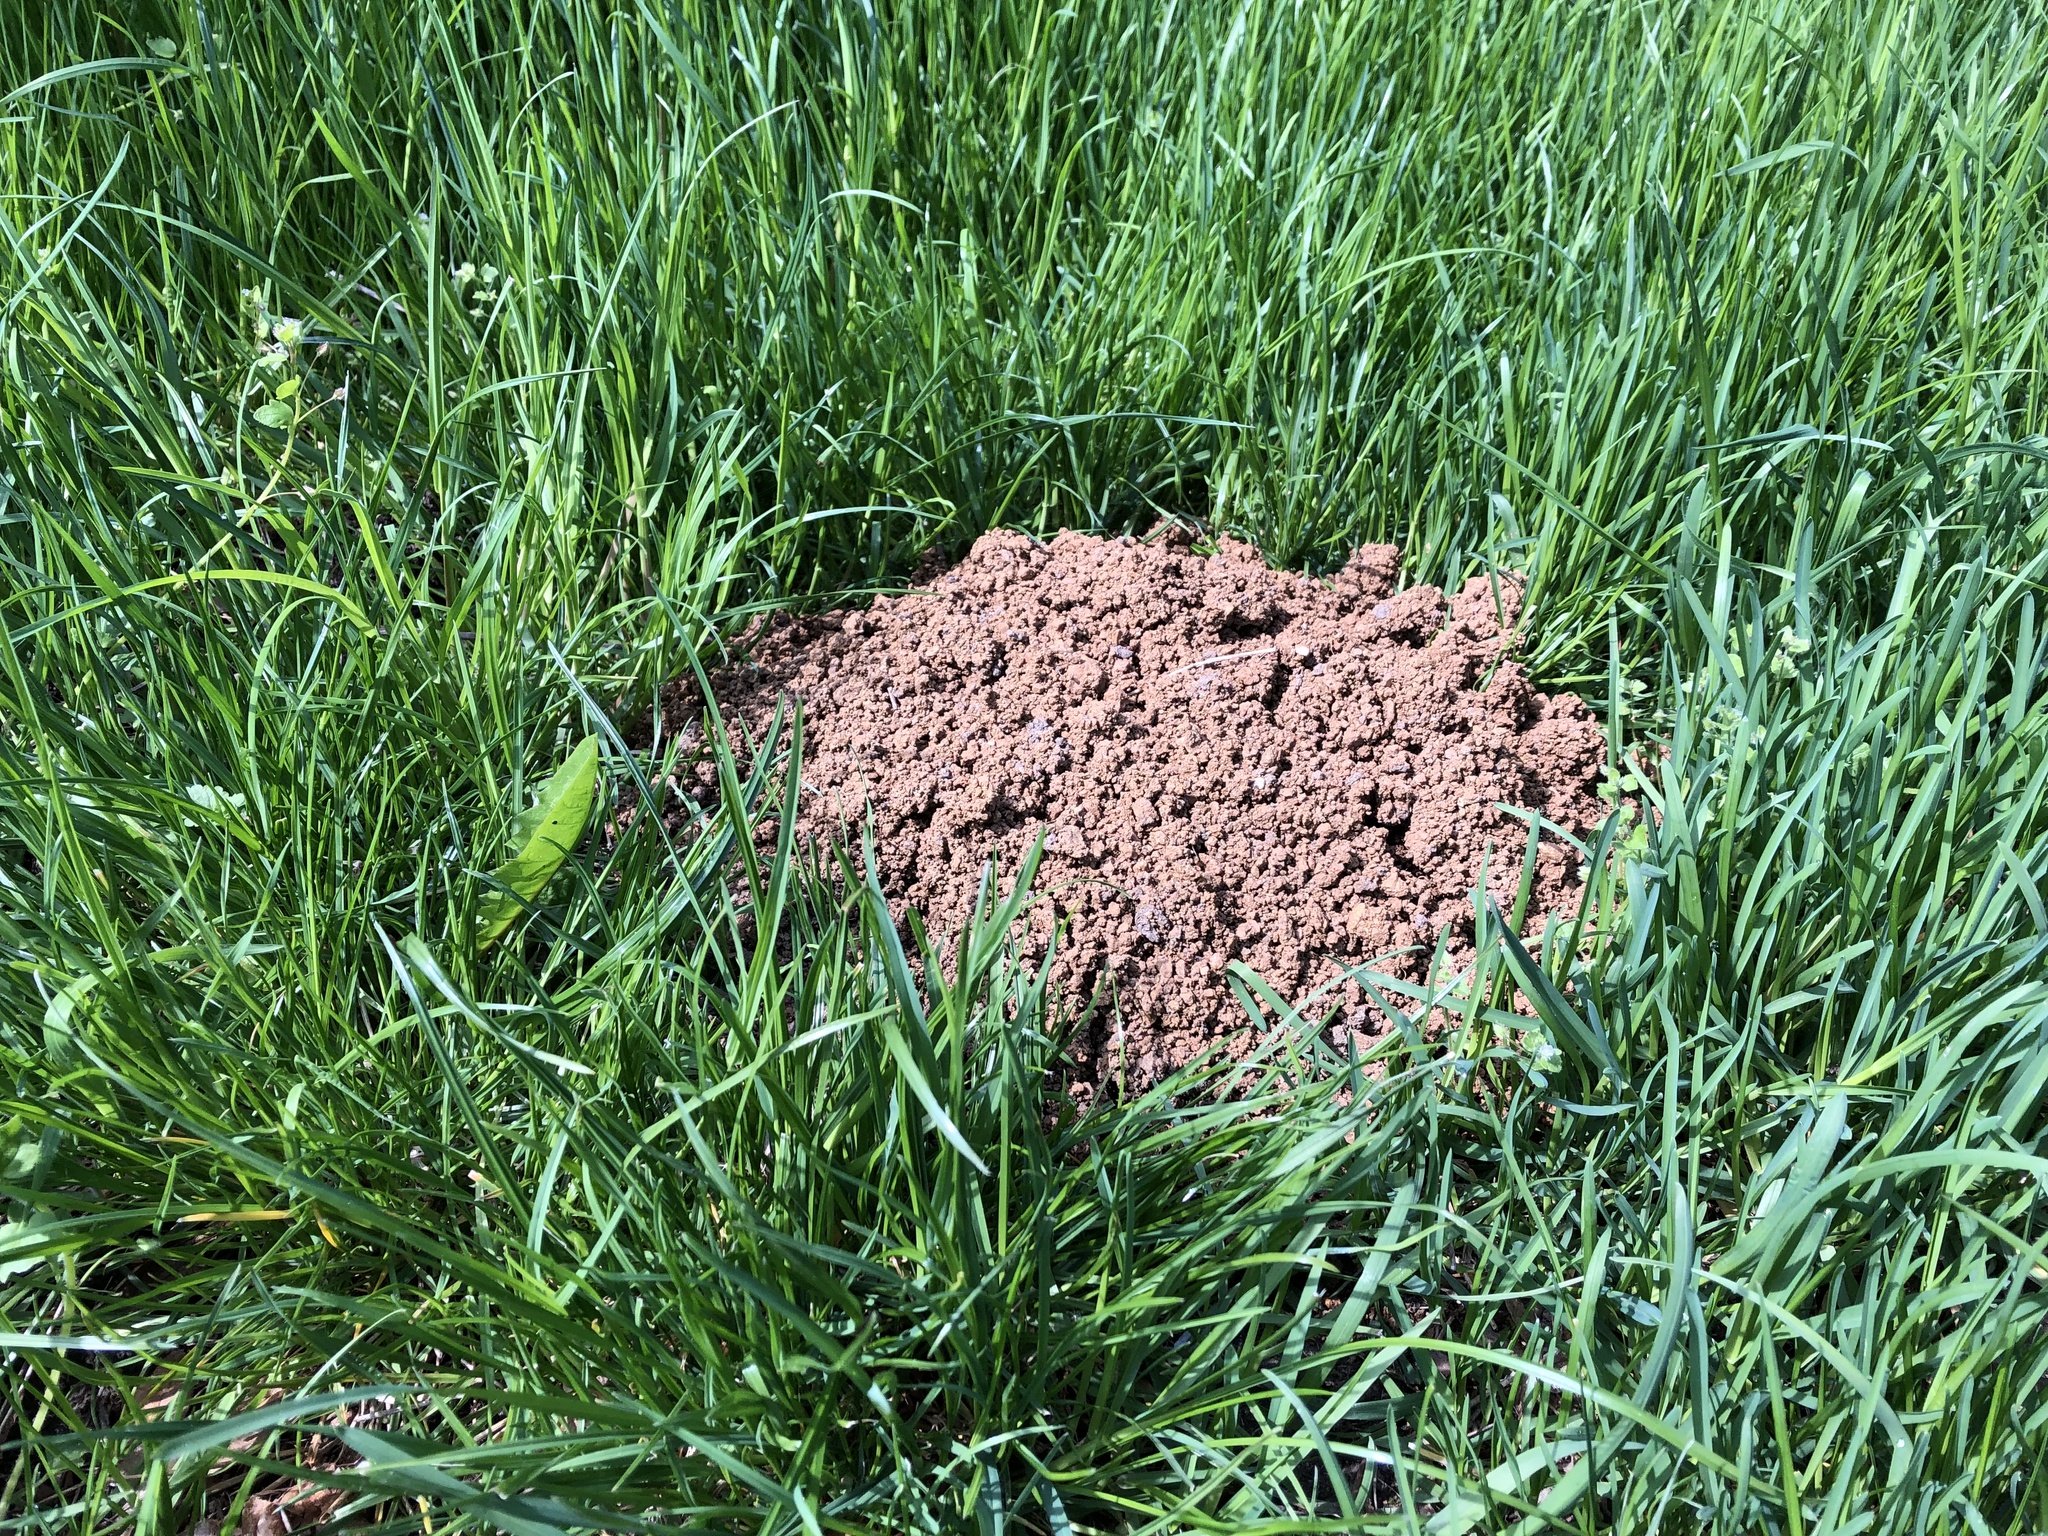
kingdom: Animalia
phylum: Chordata
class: Mammalia
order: Soricomorpha
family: Talpidae
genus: Talpa
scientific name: Talpa europaea
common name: European mole
